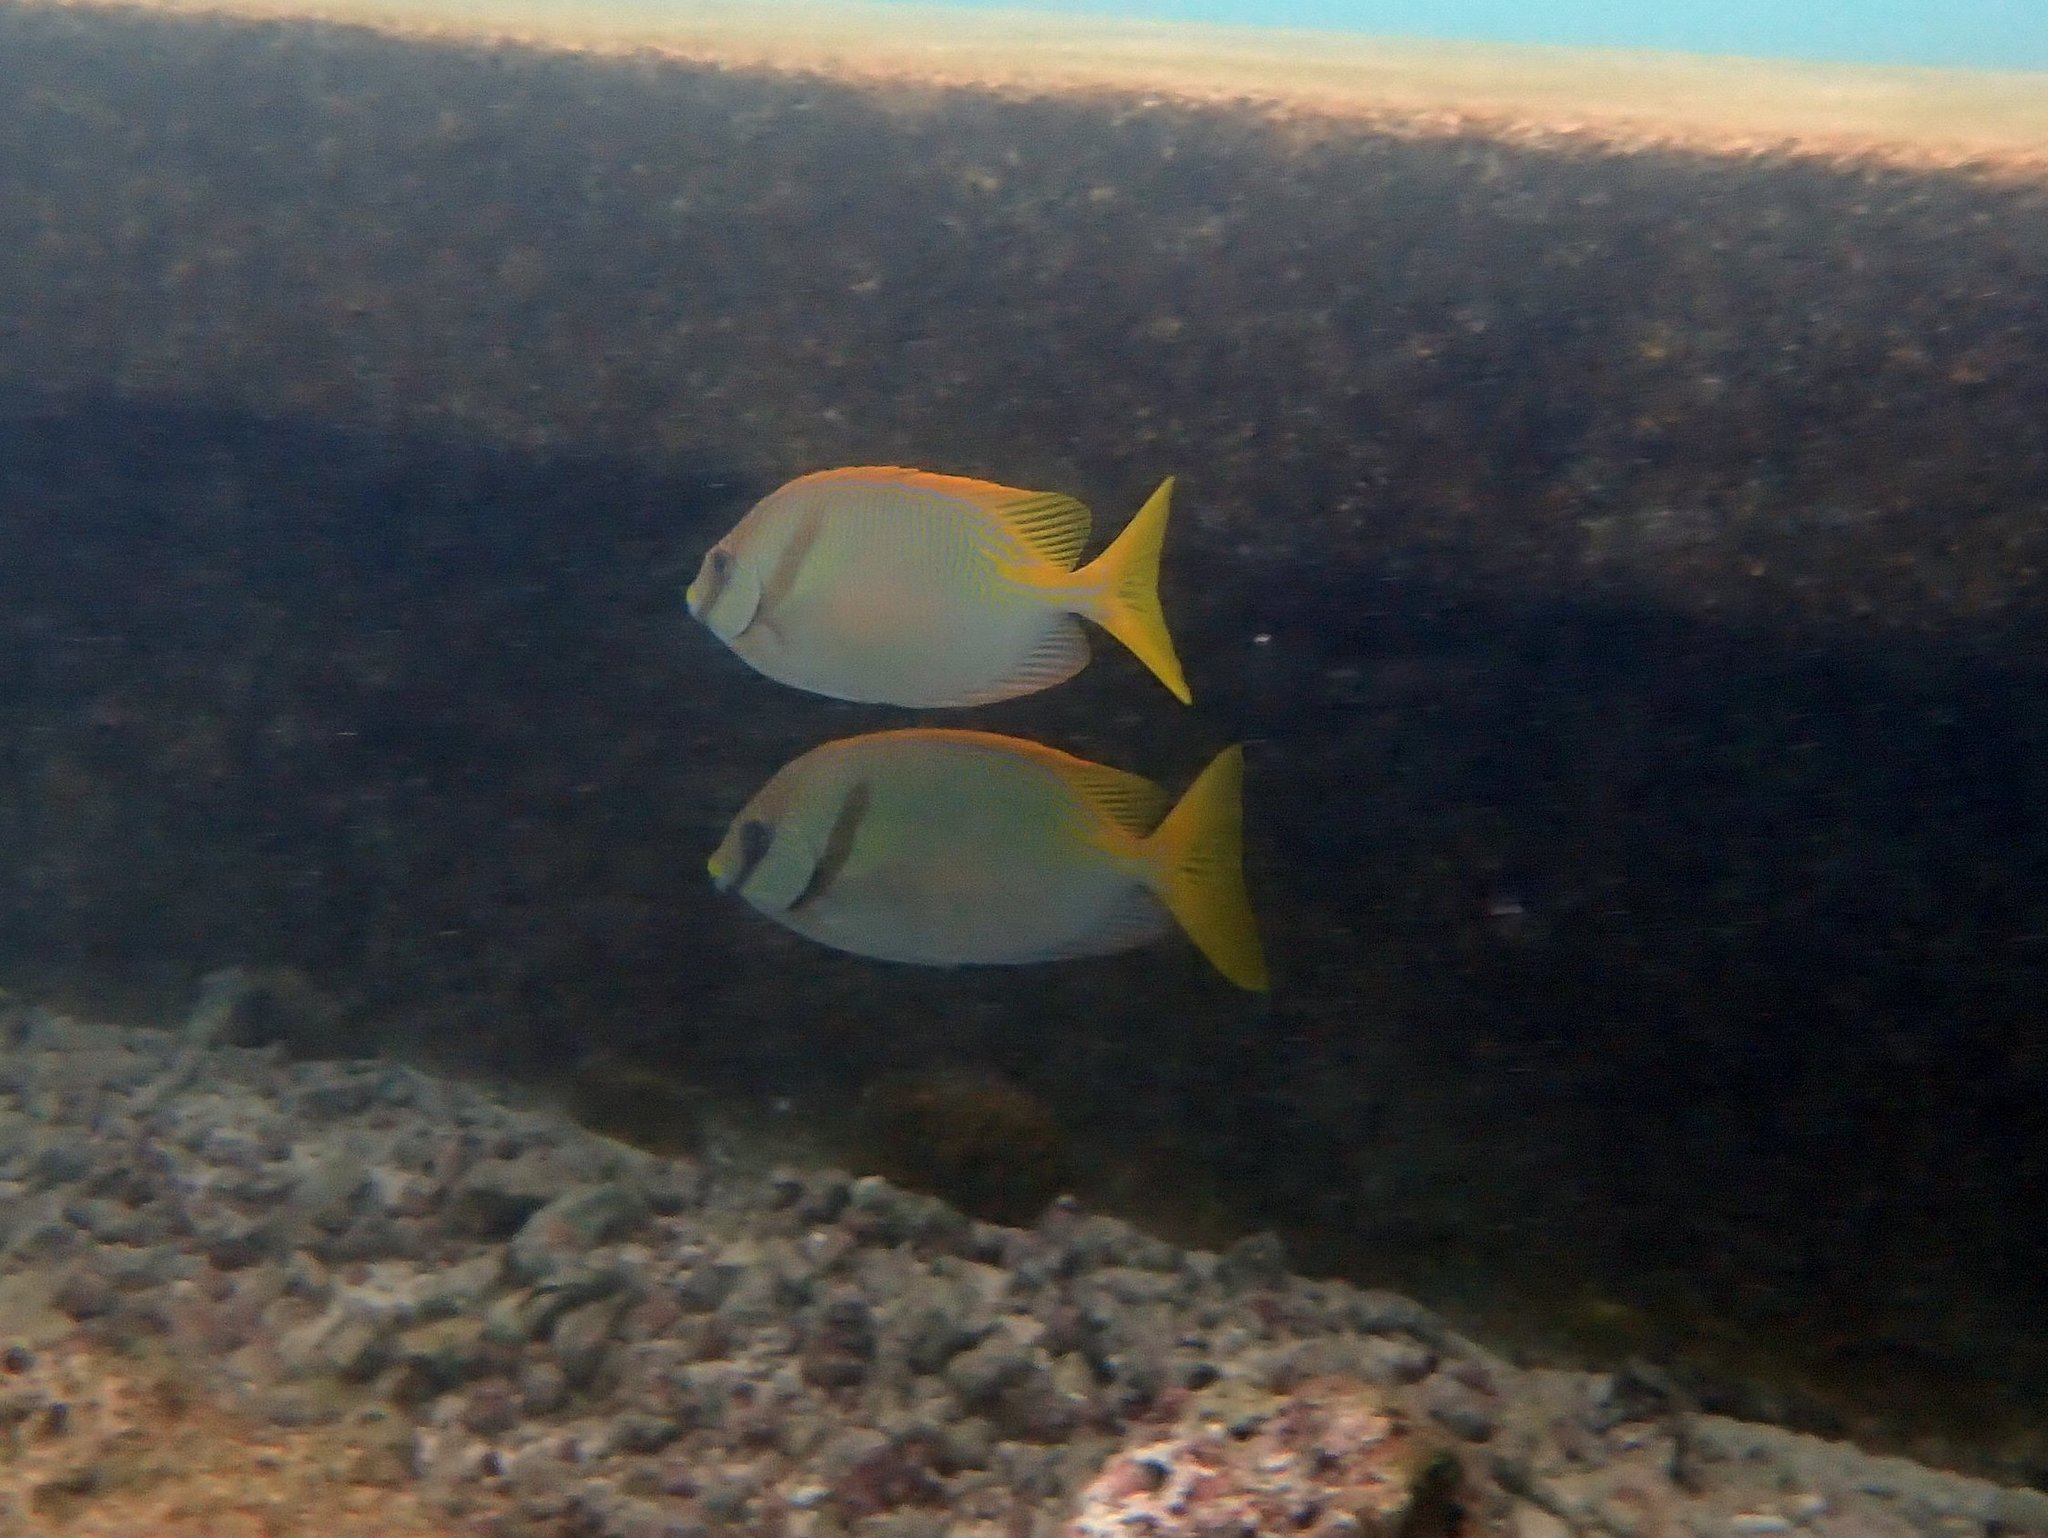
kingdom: Animalia
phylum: Chordata
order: Perciformes
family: Siganidae
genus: Siganus
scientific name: Siganus doliatus
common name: Barred spinefoot
